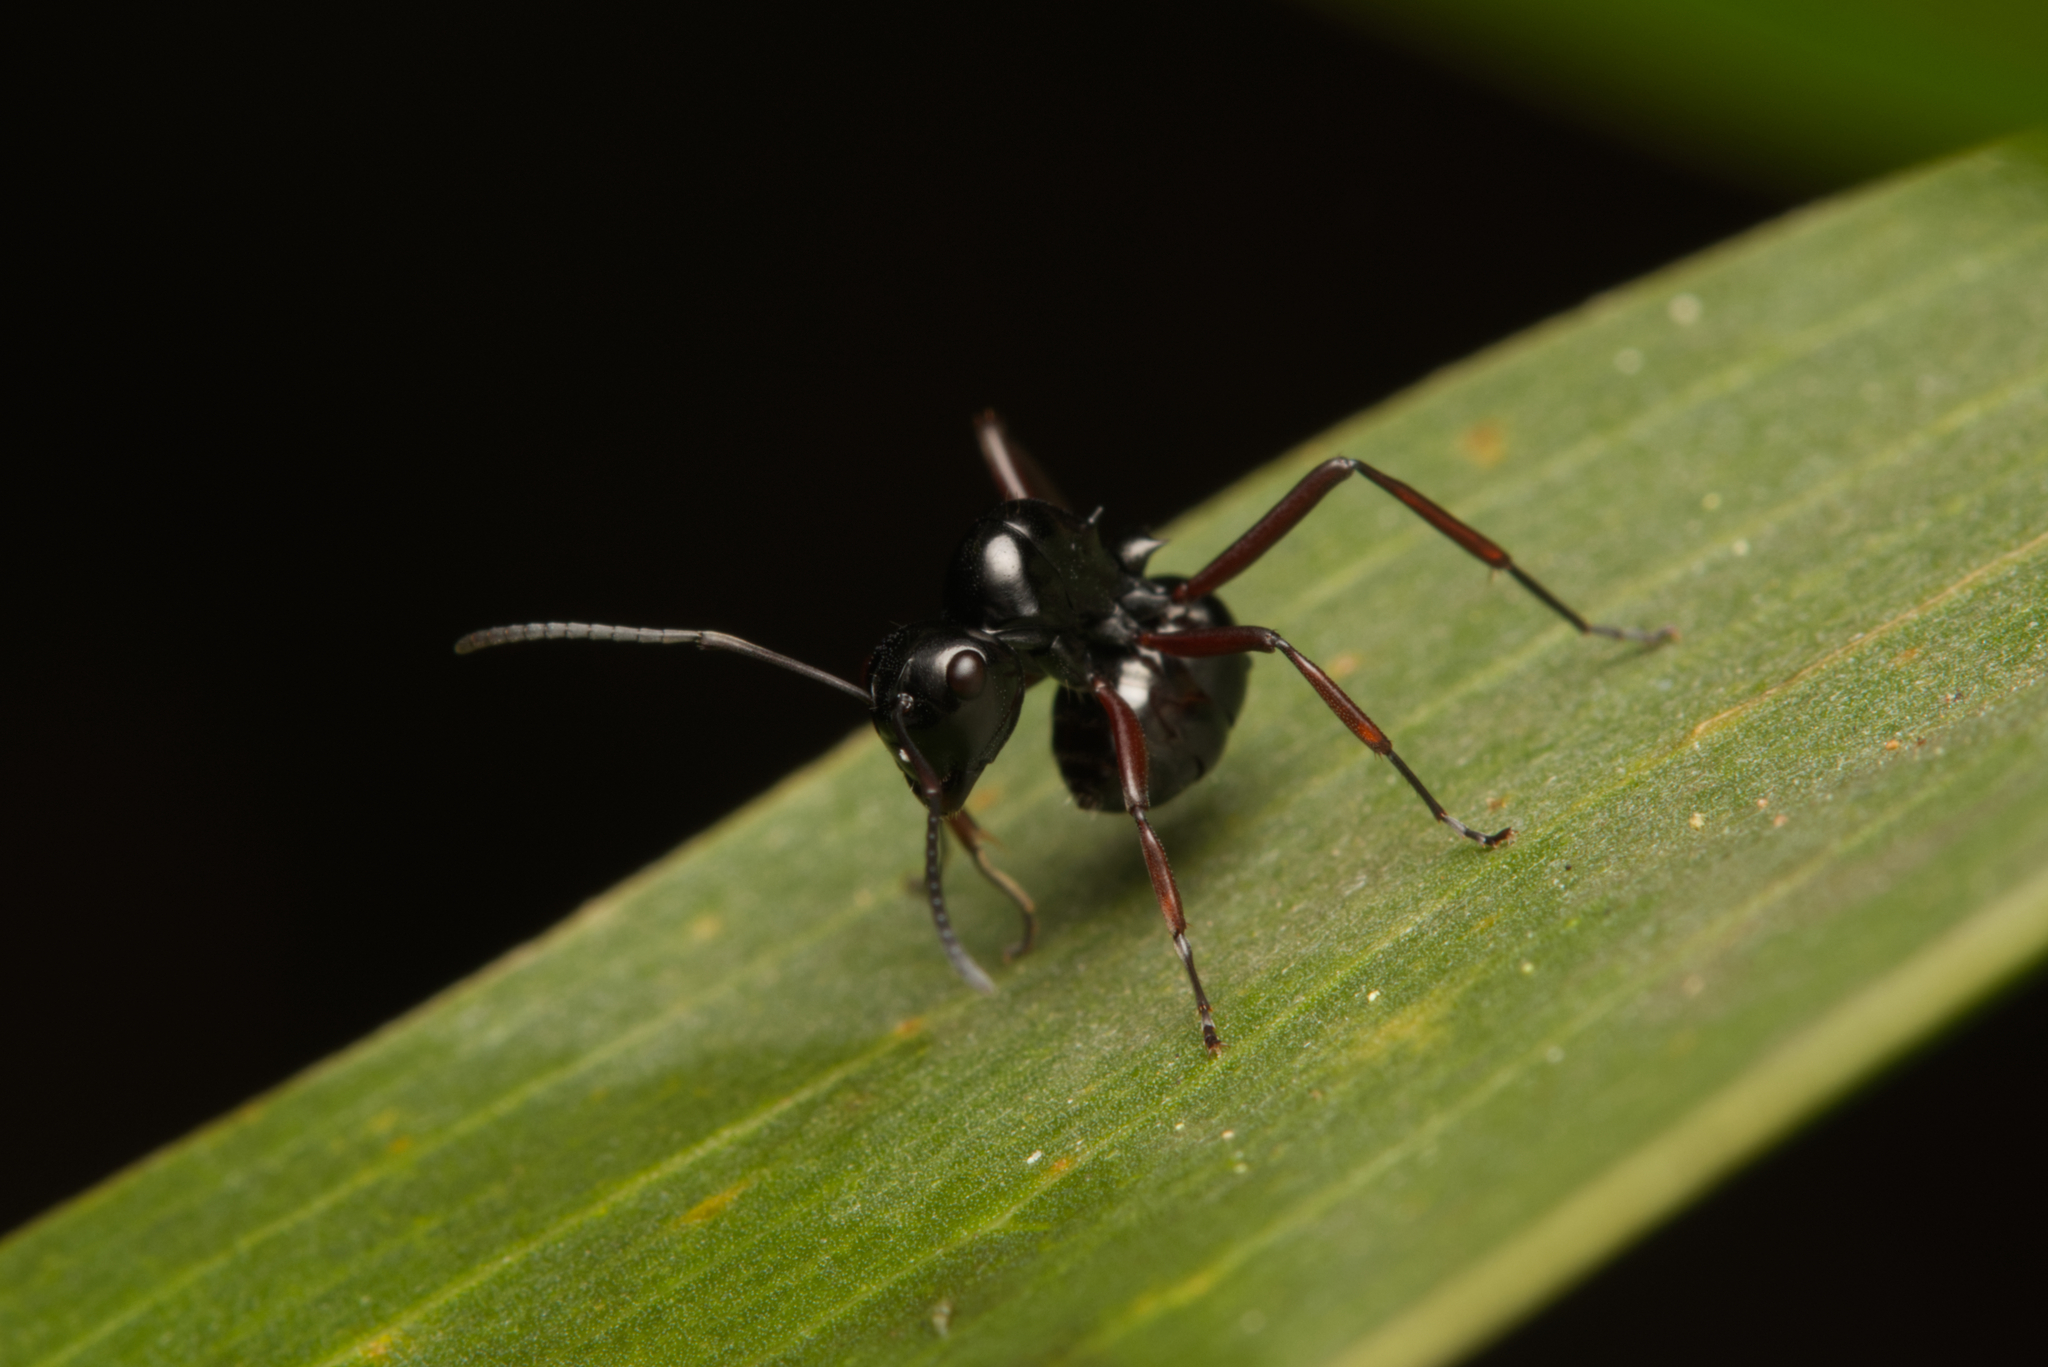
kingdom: Animalia
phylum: Arthropoda
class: Insecta
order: Hymenoptera
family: Formicidae
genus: Polyrhachis
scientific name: Polyrhachis australis
